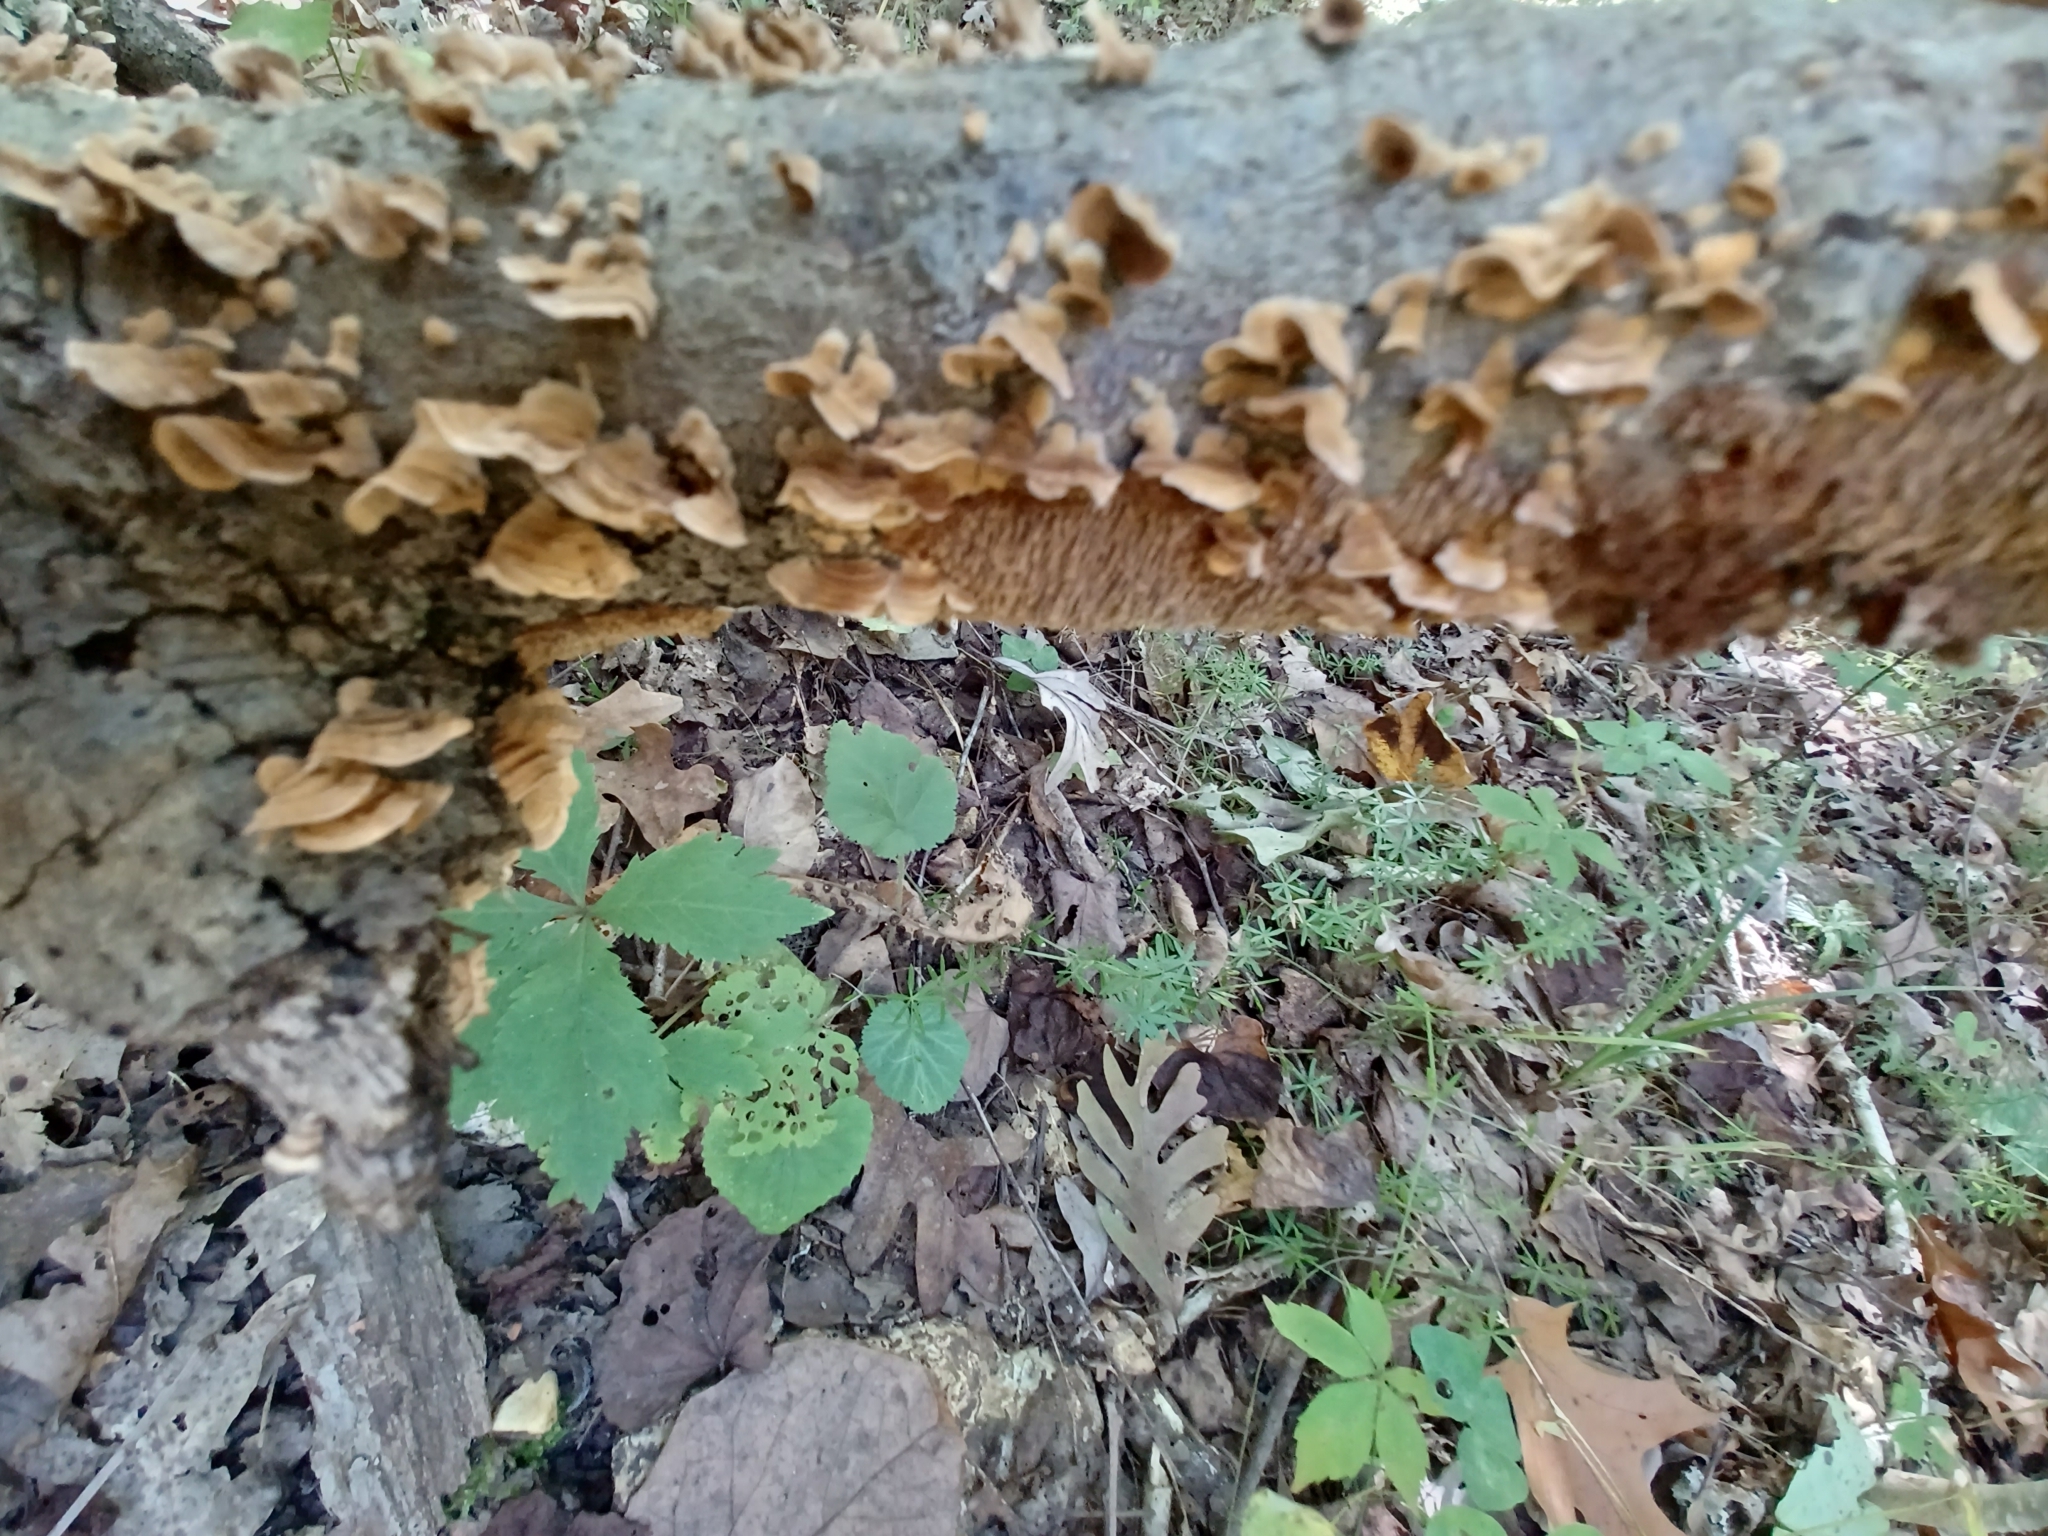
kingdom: Fungi
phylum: Basidiomycota
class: Agaricomycetes
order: Russulales
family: Stereaceae
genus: Stereum
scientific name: Stereum complicatum
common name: Crowded parchment
